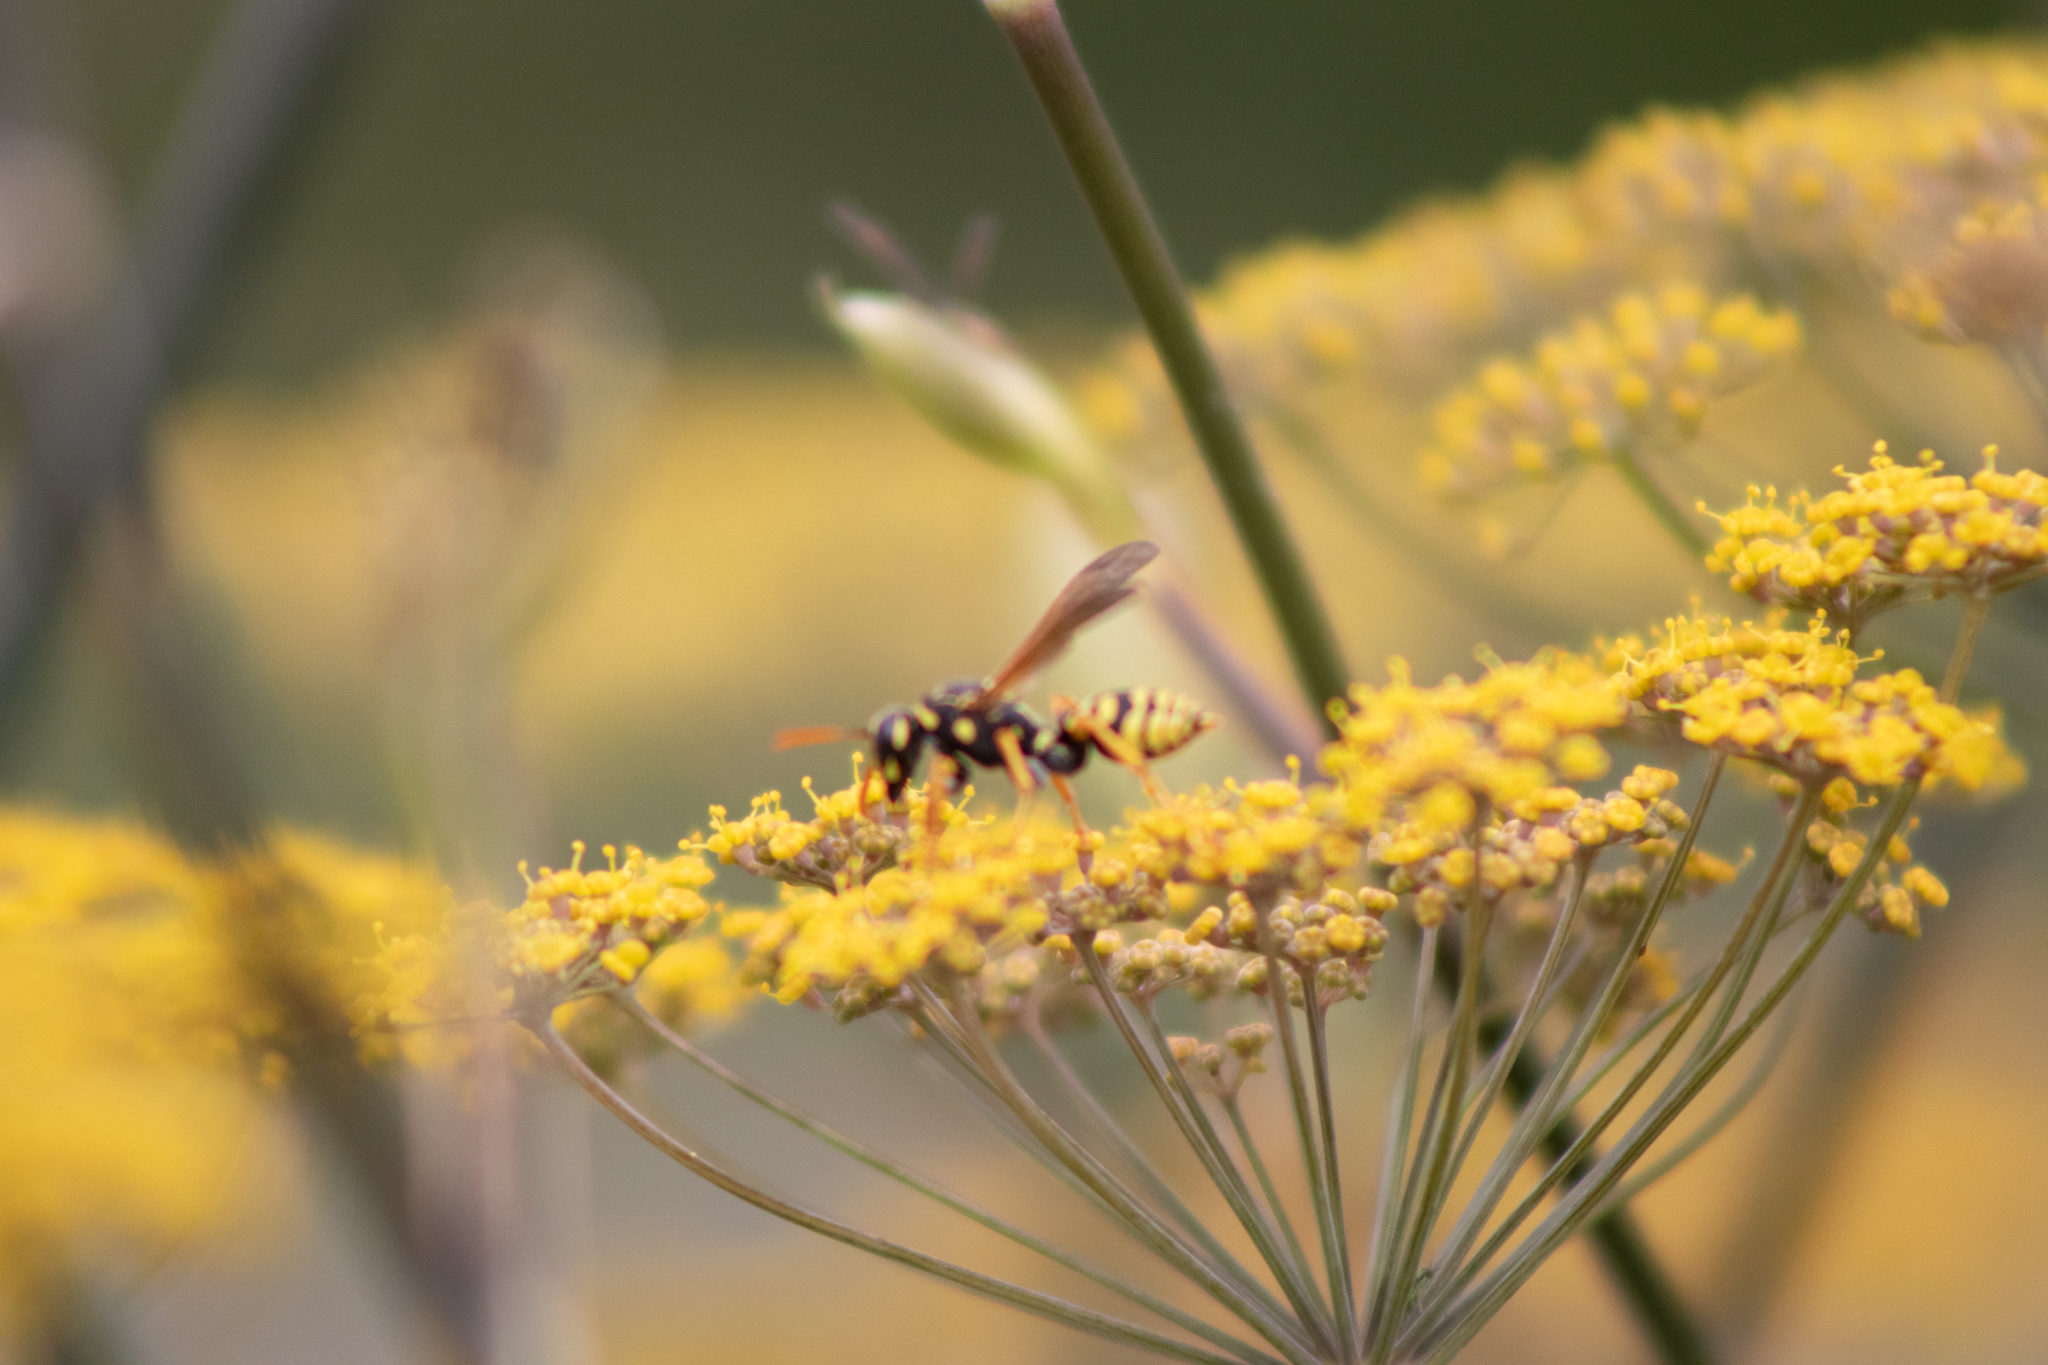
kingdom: Animalia
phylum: Arthropoda
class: Insecta
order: Hymenoptera
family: Eumenidae
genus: Polistes
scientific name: Polistes dominula
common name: Paper wasp
